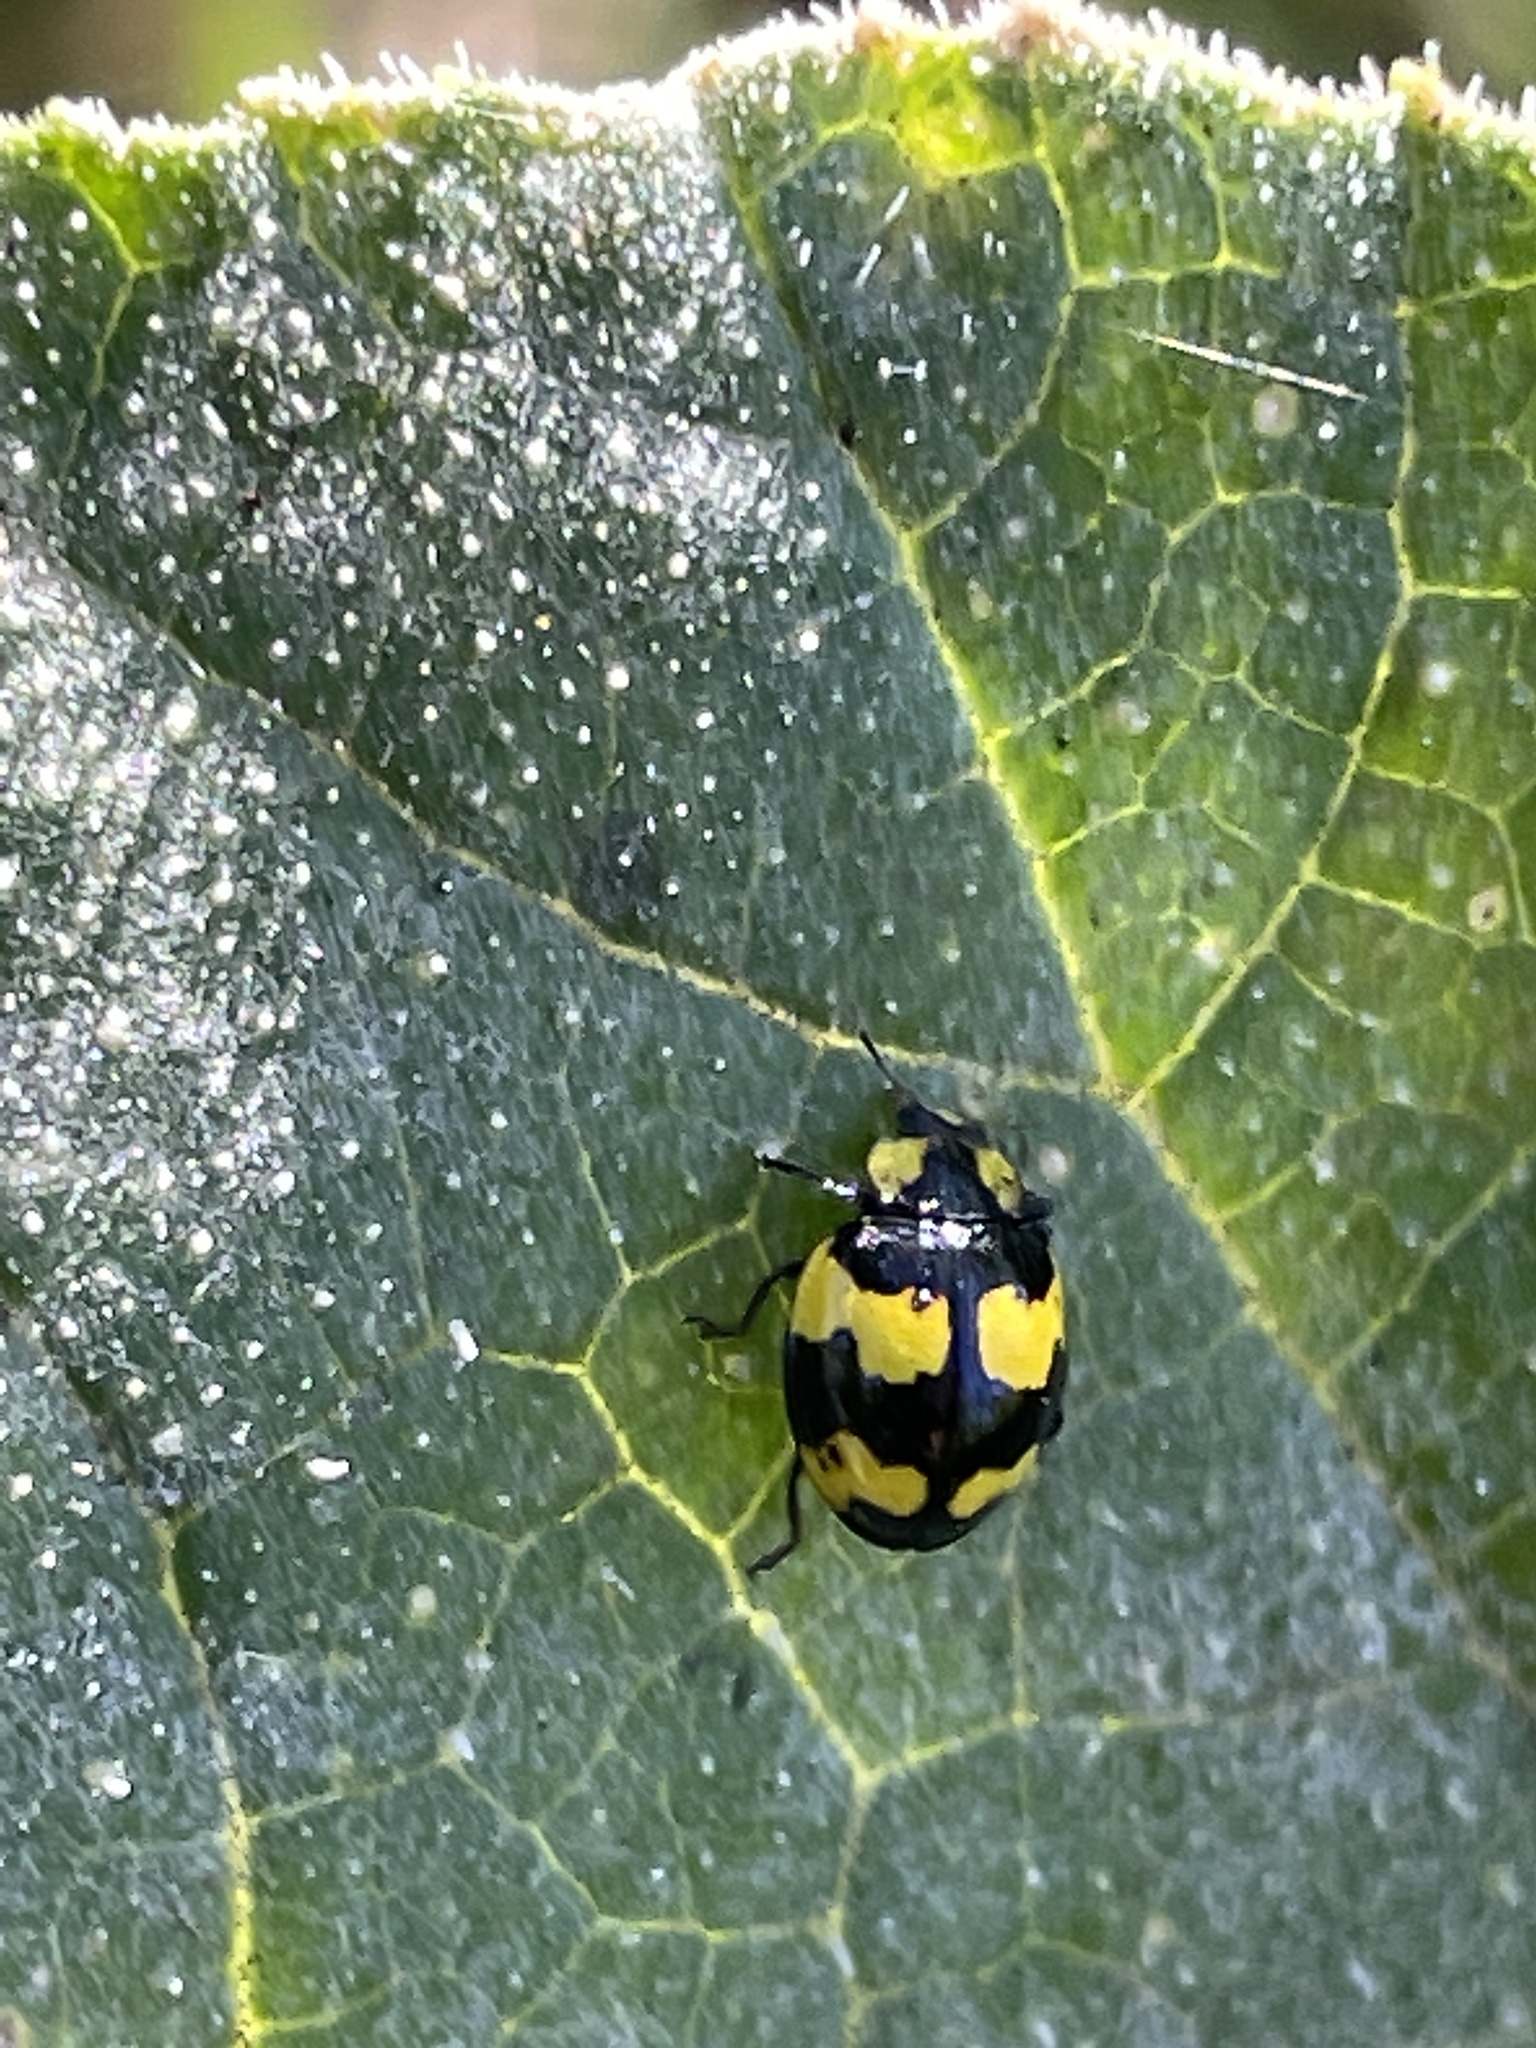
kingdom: Animalia
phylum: Arthropoda
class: Insecta
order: Coleoptera
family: Coccinellidae
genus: Illeis
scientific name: Illeis galbula
